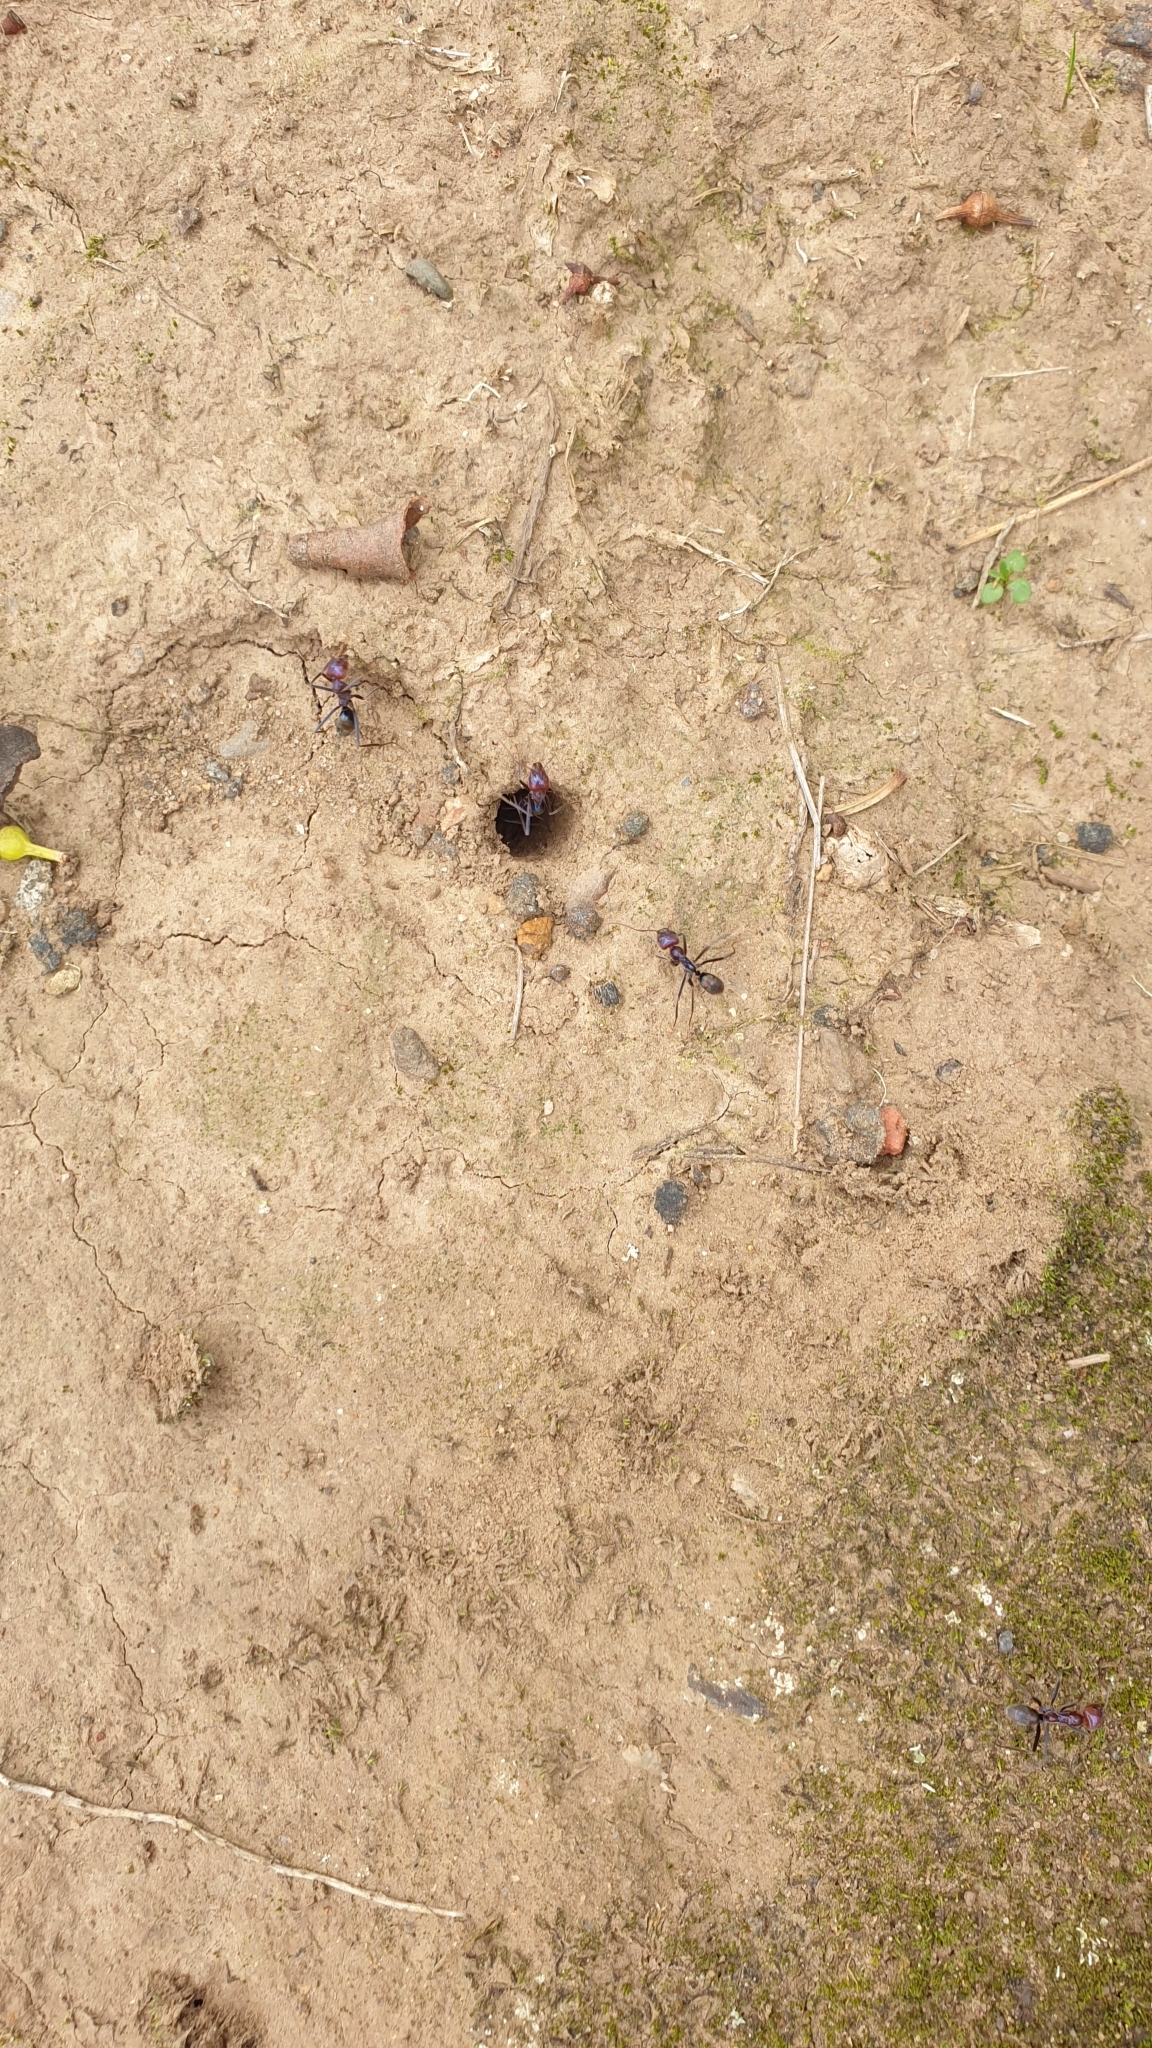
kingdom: Animalia
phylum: Arthropoda
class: Insecta
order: Hymenoptera
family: Formicidae
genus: Iridomyrmex
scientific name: Iridomyrmex purpureus
